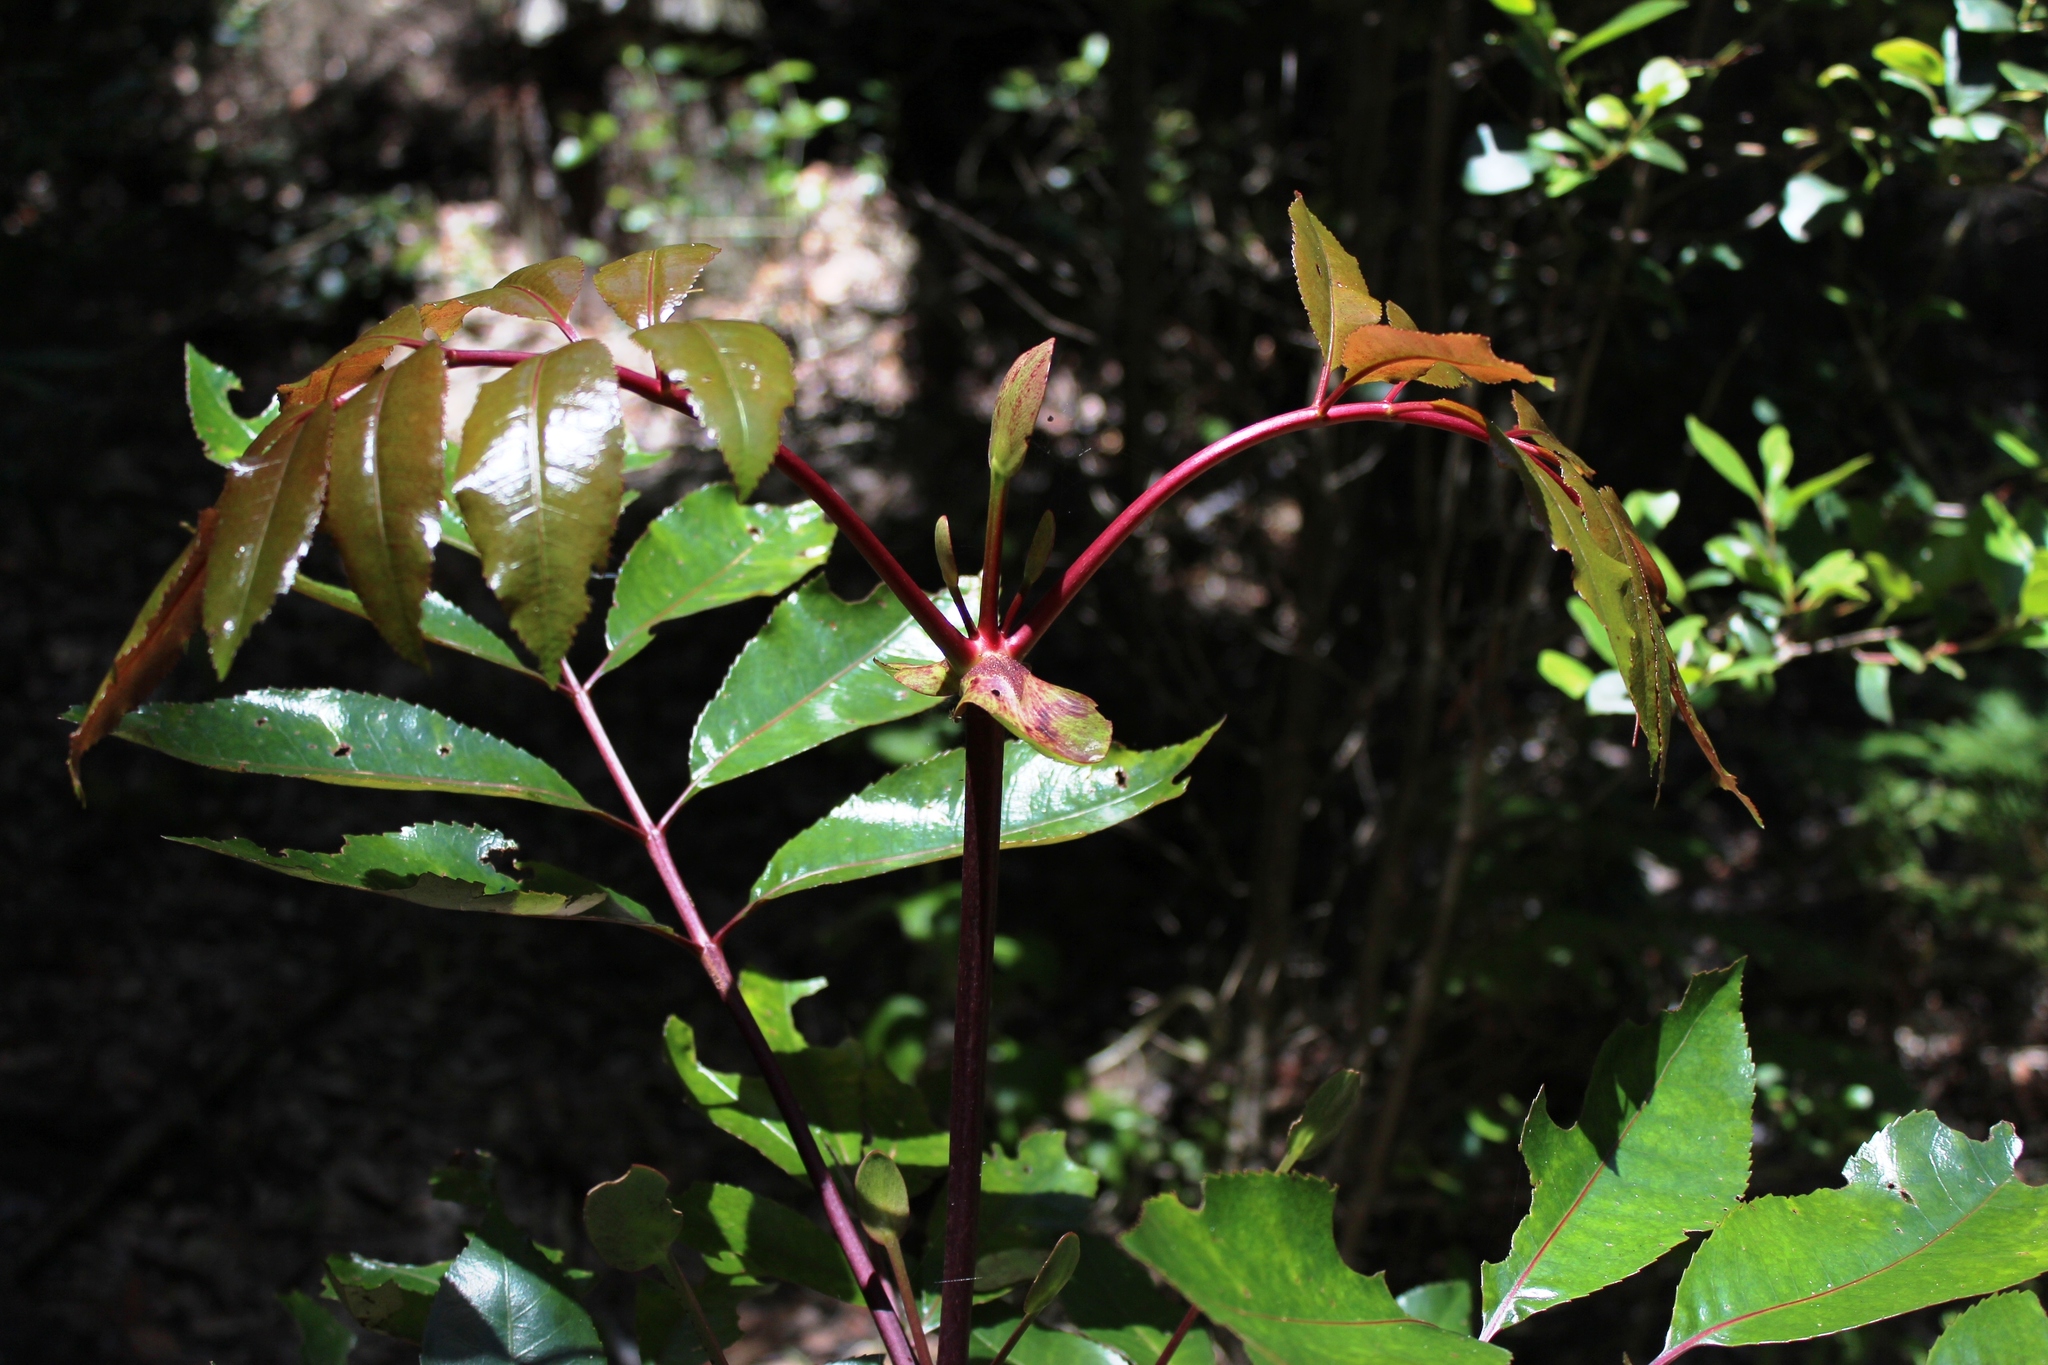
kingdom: Plantae
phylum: Tracheophyta
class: Magnoliopsida
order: Oxalidales
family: Cunoniaceae
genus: Cunonia
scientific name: Cunonia capensis
